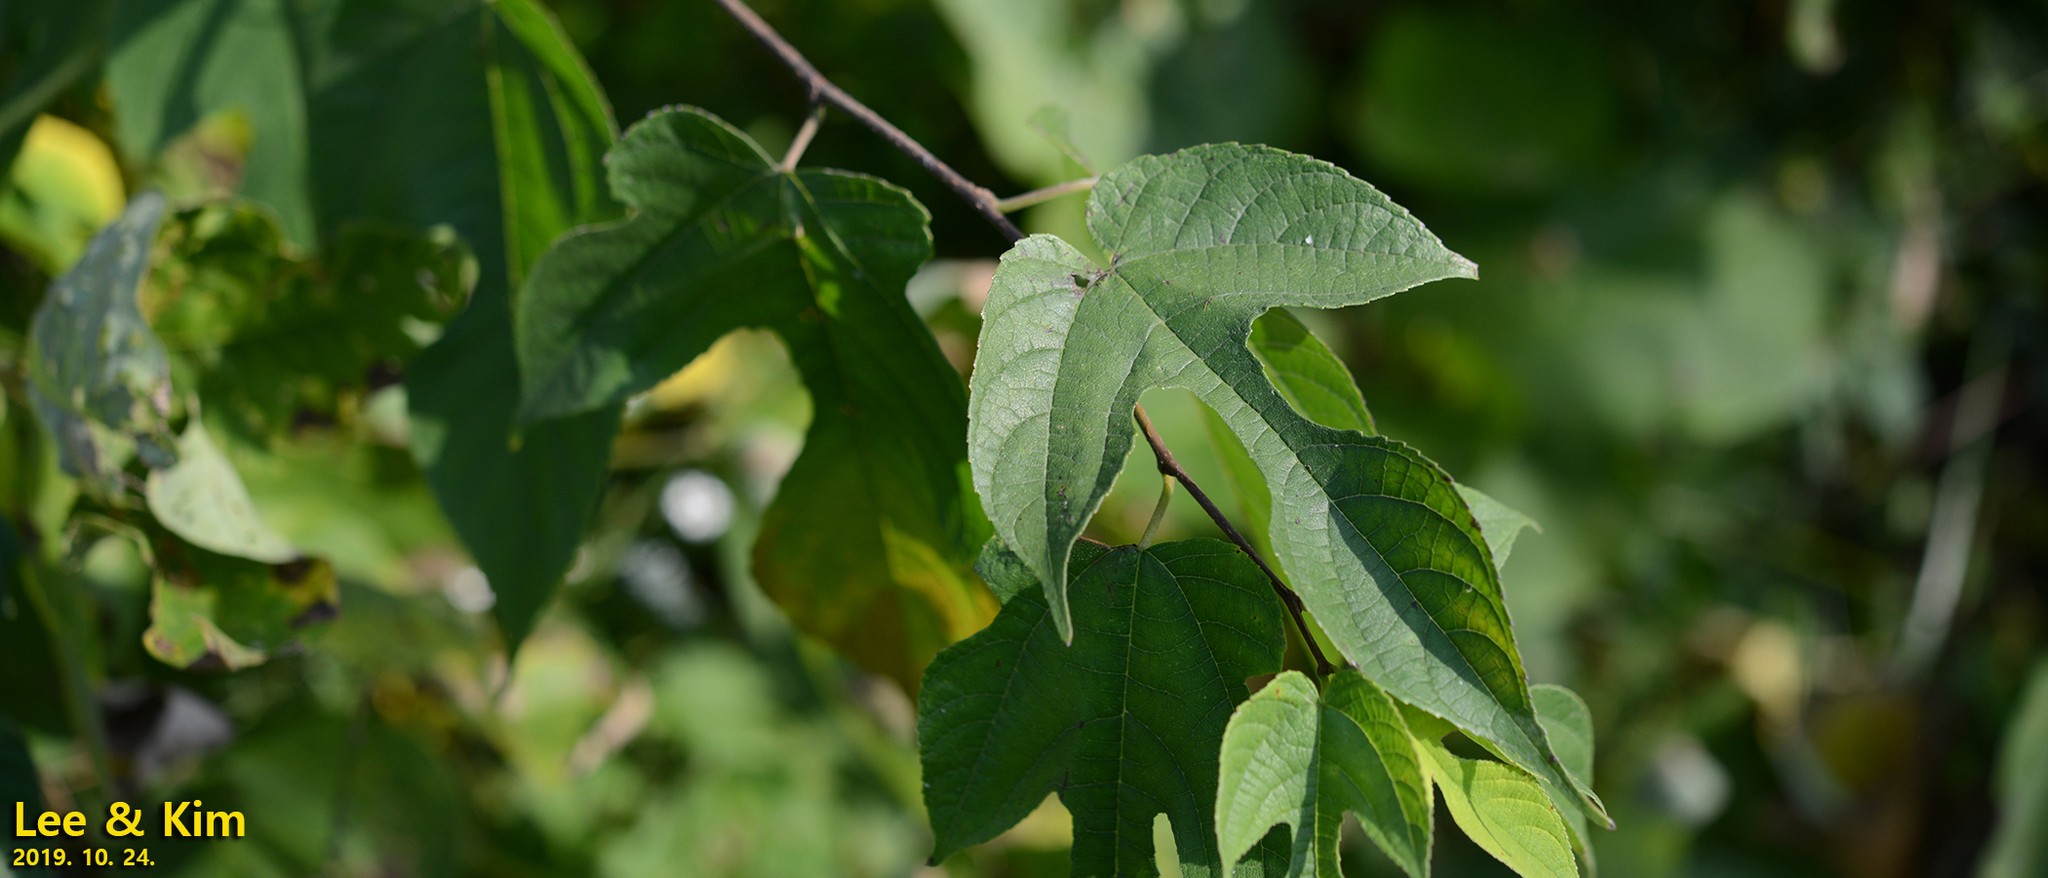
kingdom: Plantae
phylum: Tracheophyta
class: Magnoliopsida
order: Rosales
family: Moraceae
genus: Broussonetia
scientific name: Broussonetia papyrifera
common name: Paper mulberry
